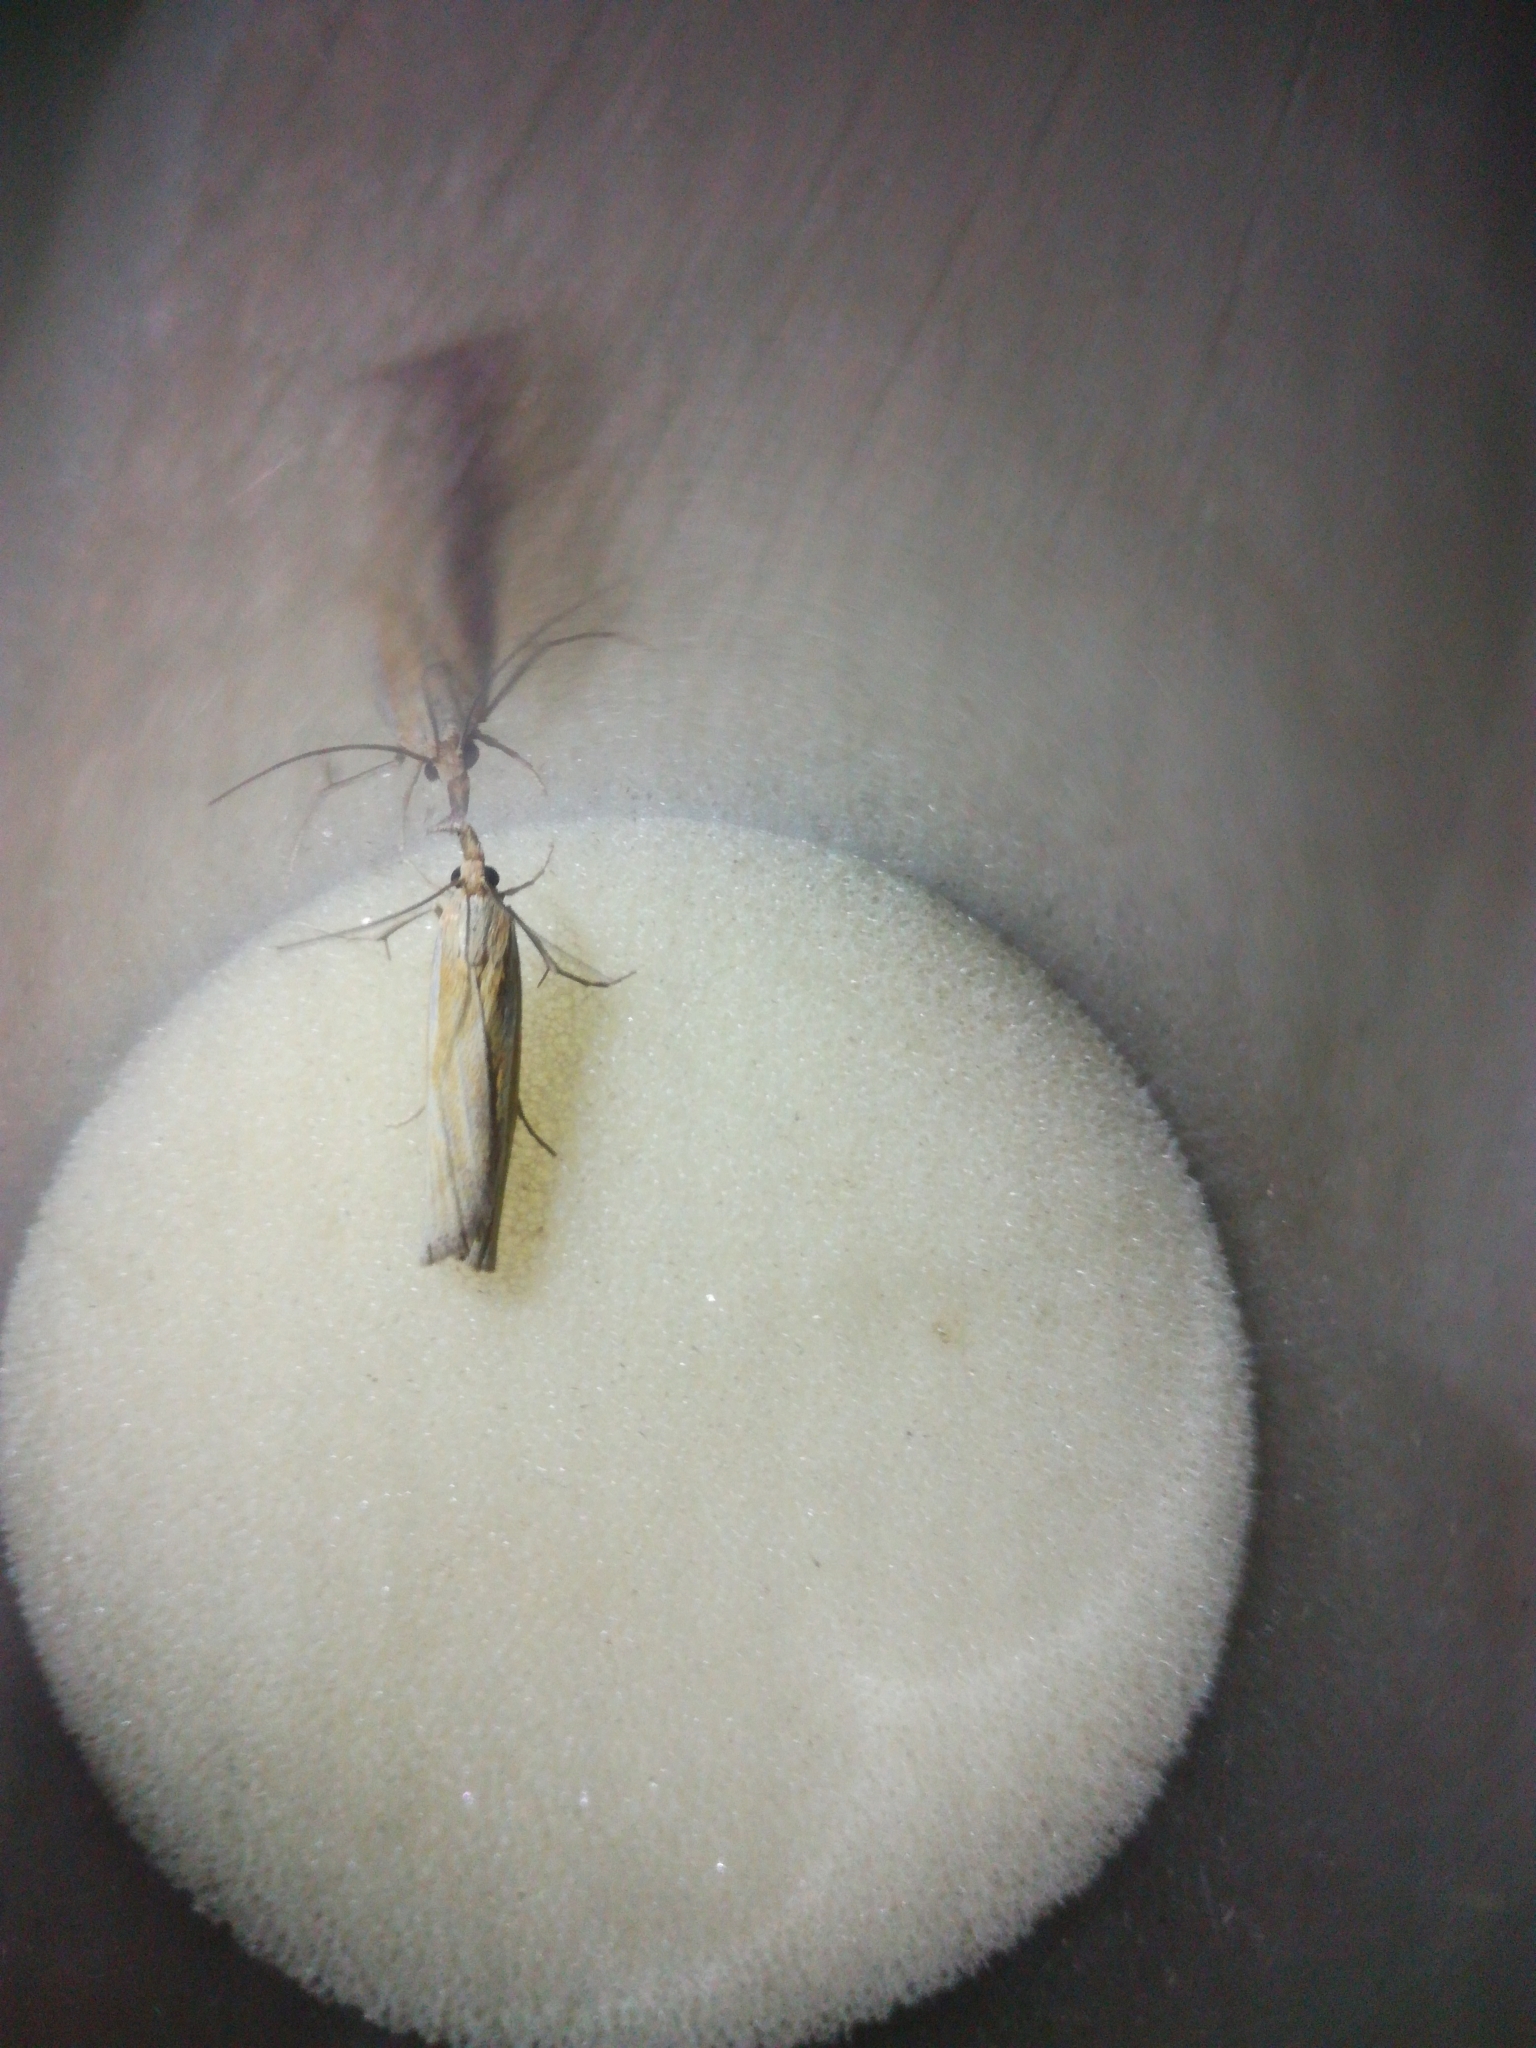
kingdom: Animalia
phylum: Arthropoda
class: Insecta
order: Lepidoptera
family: Crambidae
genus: Crambus
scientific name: Crambus perlellus
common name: Yellow satin veneer
